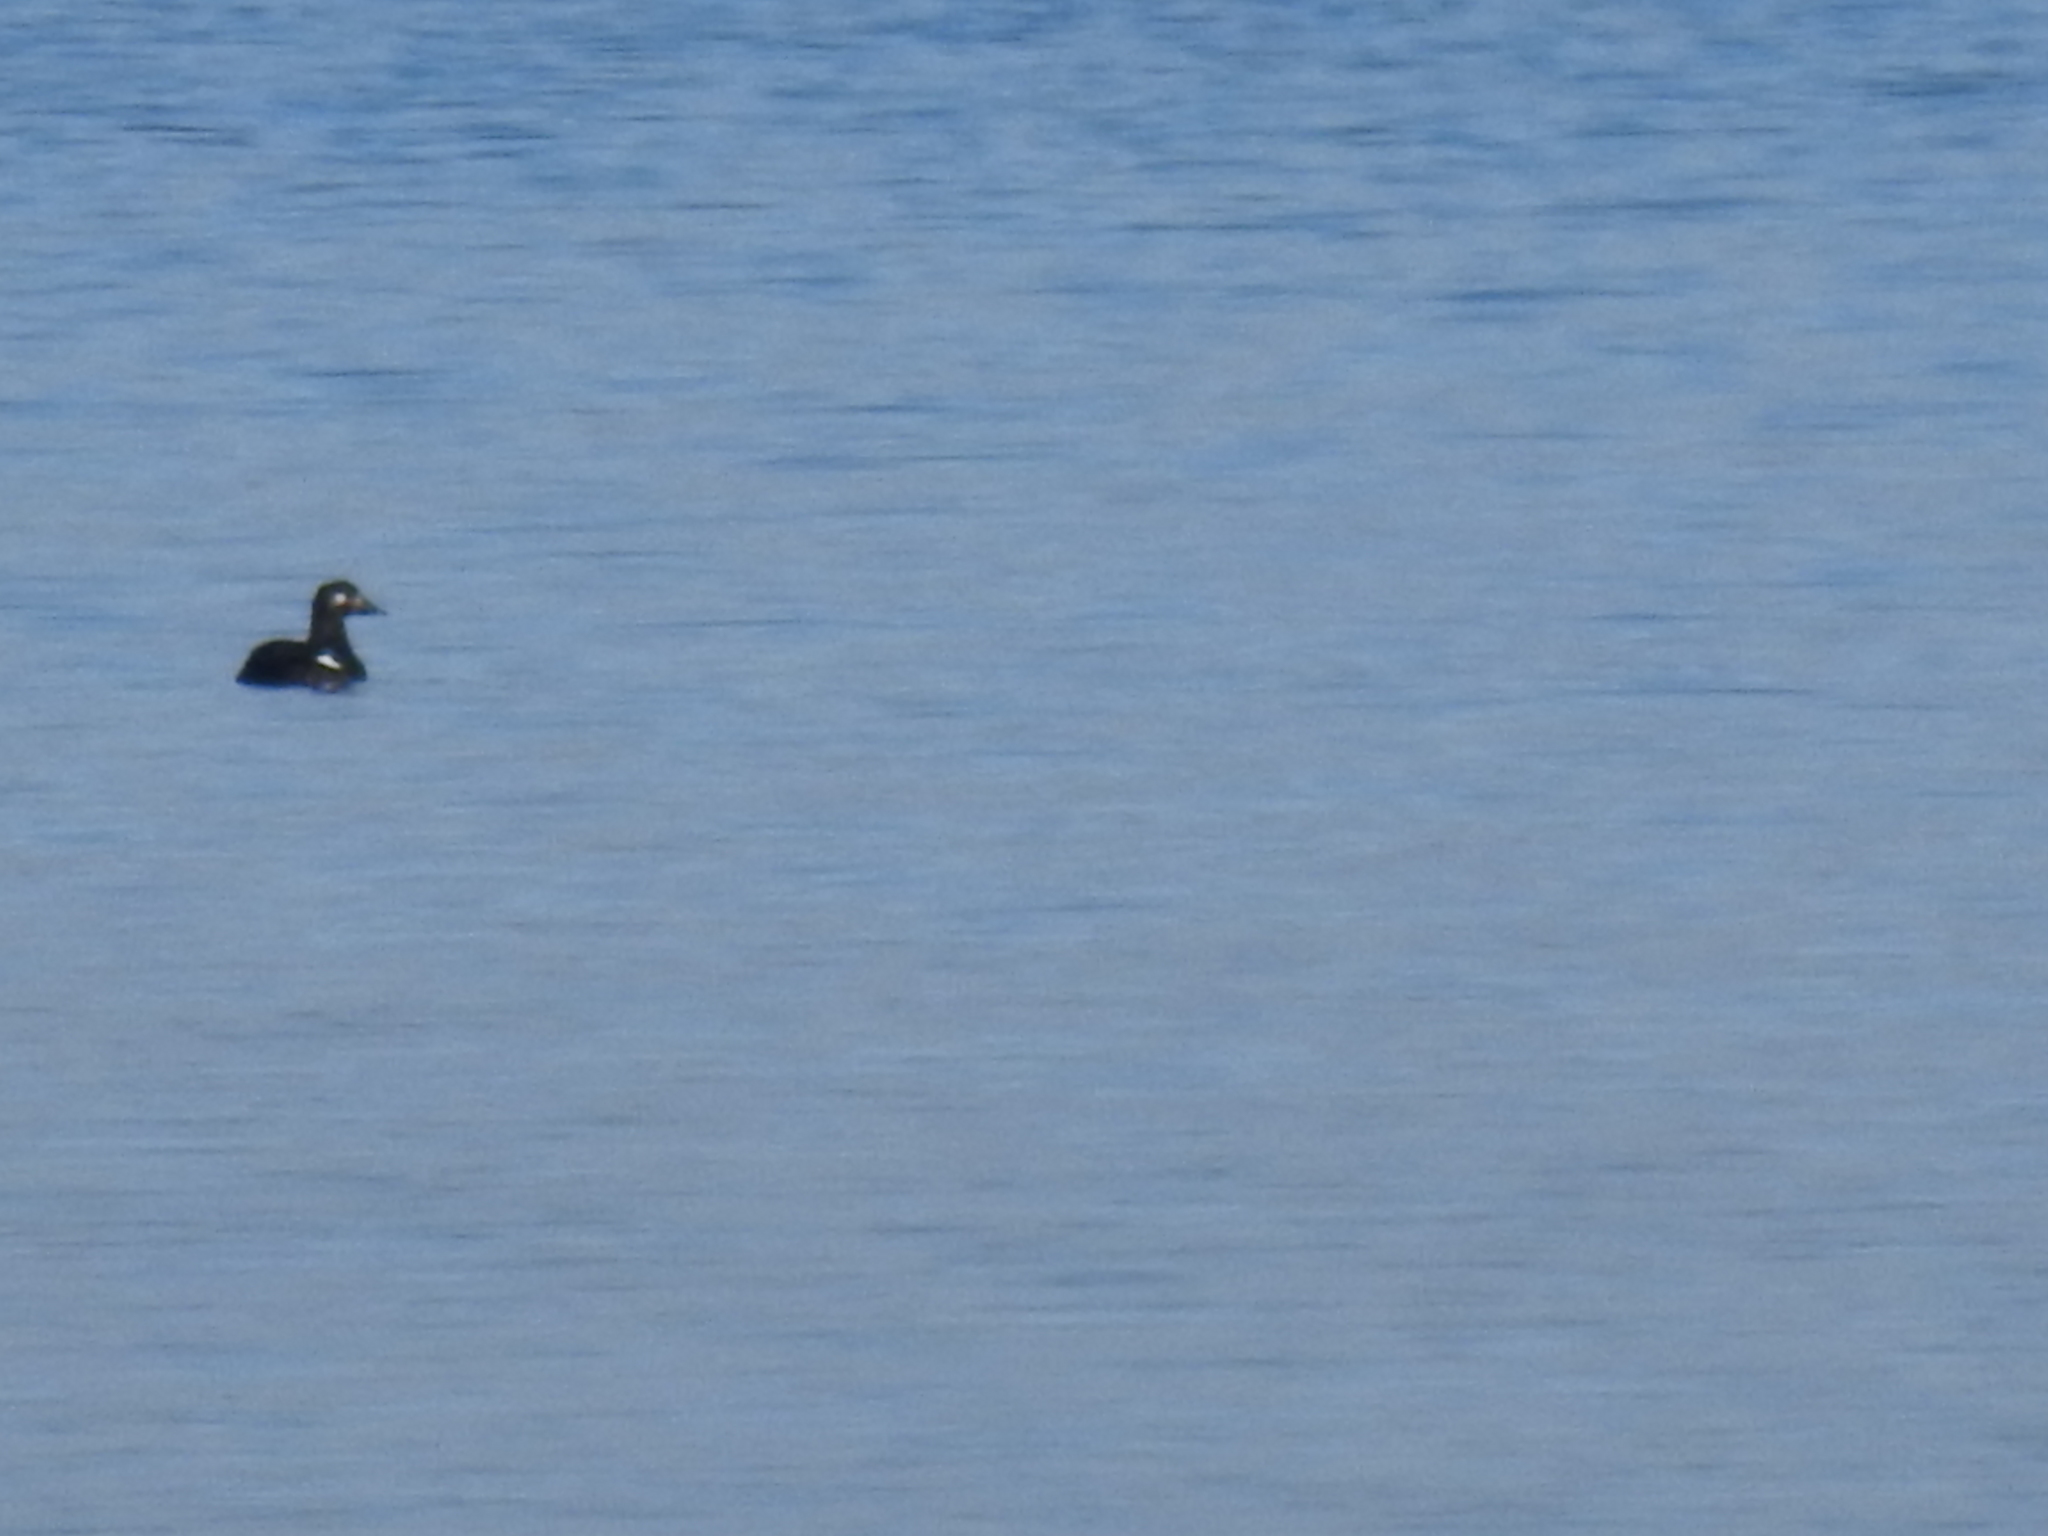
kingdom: Animalia
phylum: Chordata
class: Aves
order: Anseriformes
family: Anatidae
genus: Melanitta
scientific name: Melanitta deglandi
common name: White-winged scoter
